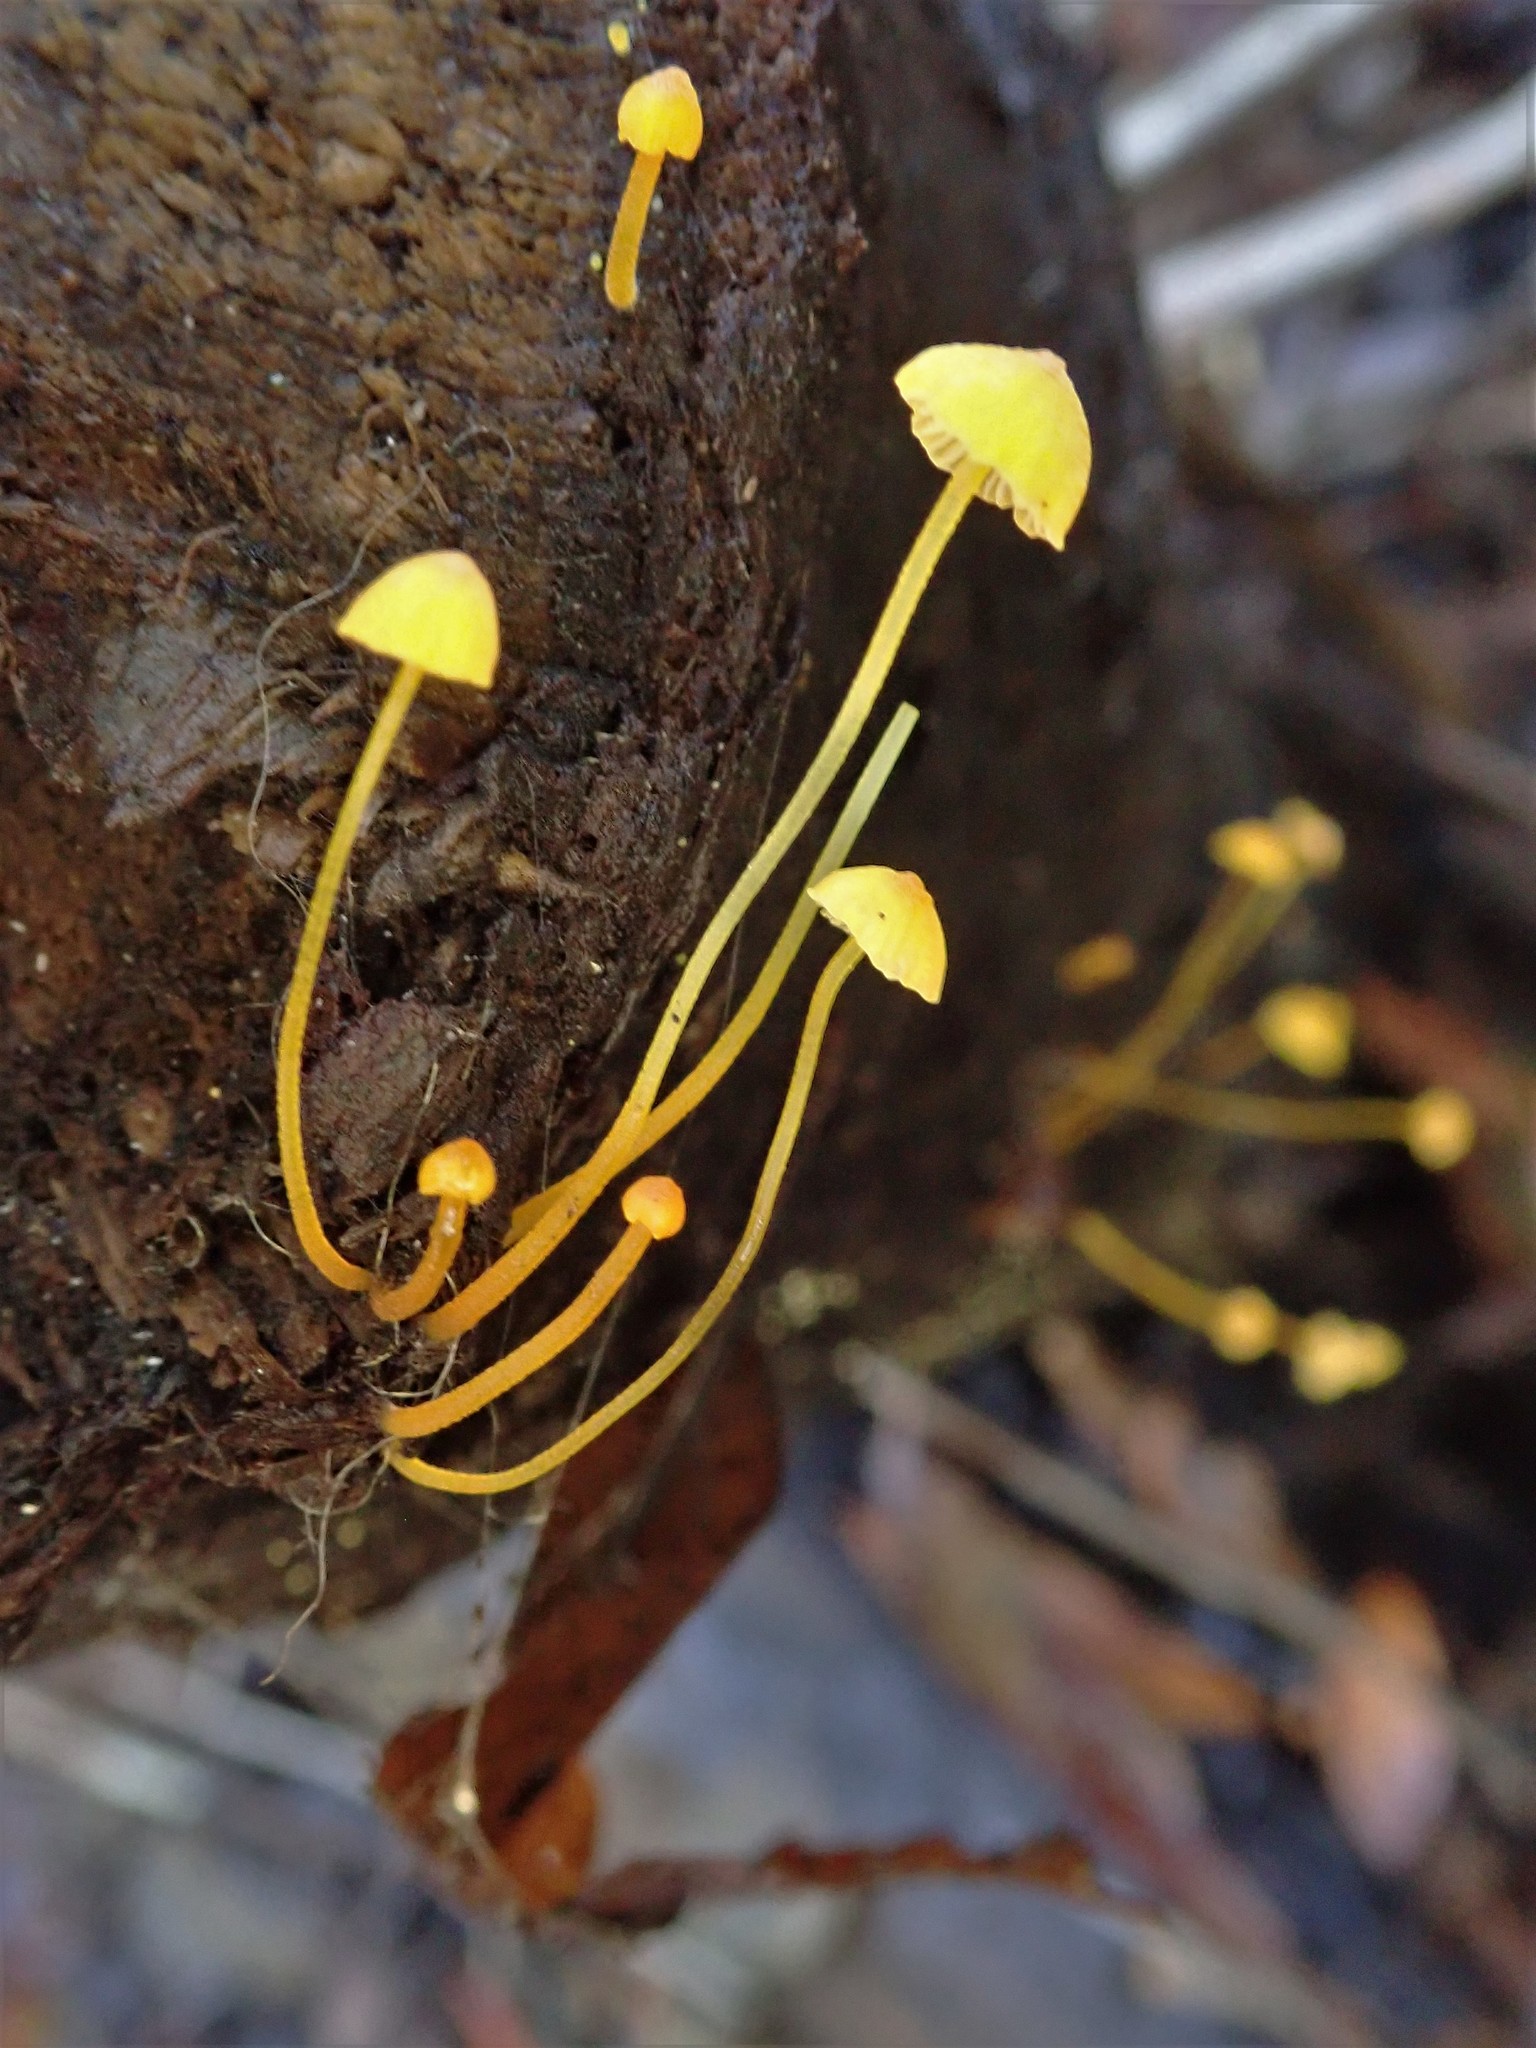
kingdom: Fungi
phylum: Basidiomycota
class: Agaricomycetes
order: Agaricales
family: Mycenaceae
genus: Mycena
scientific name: Mycena oregonensis
